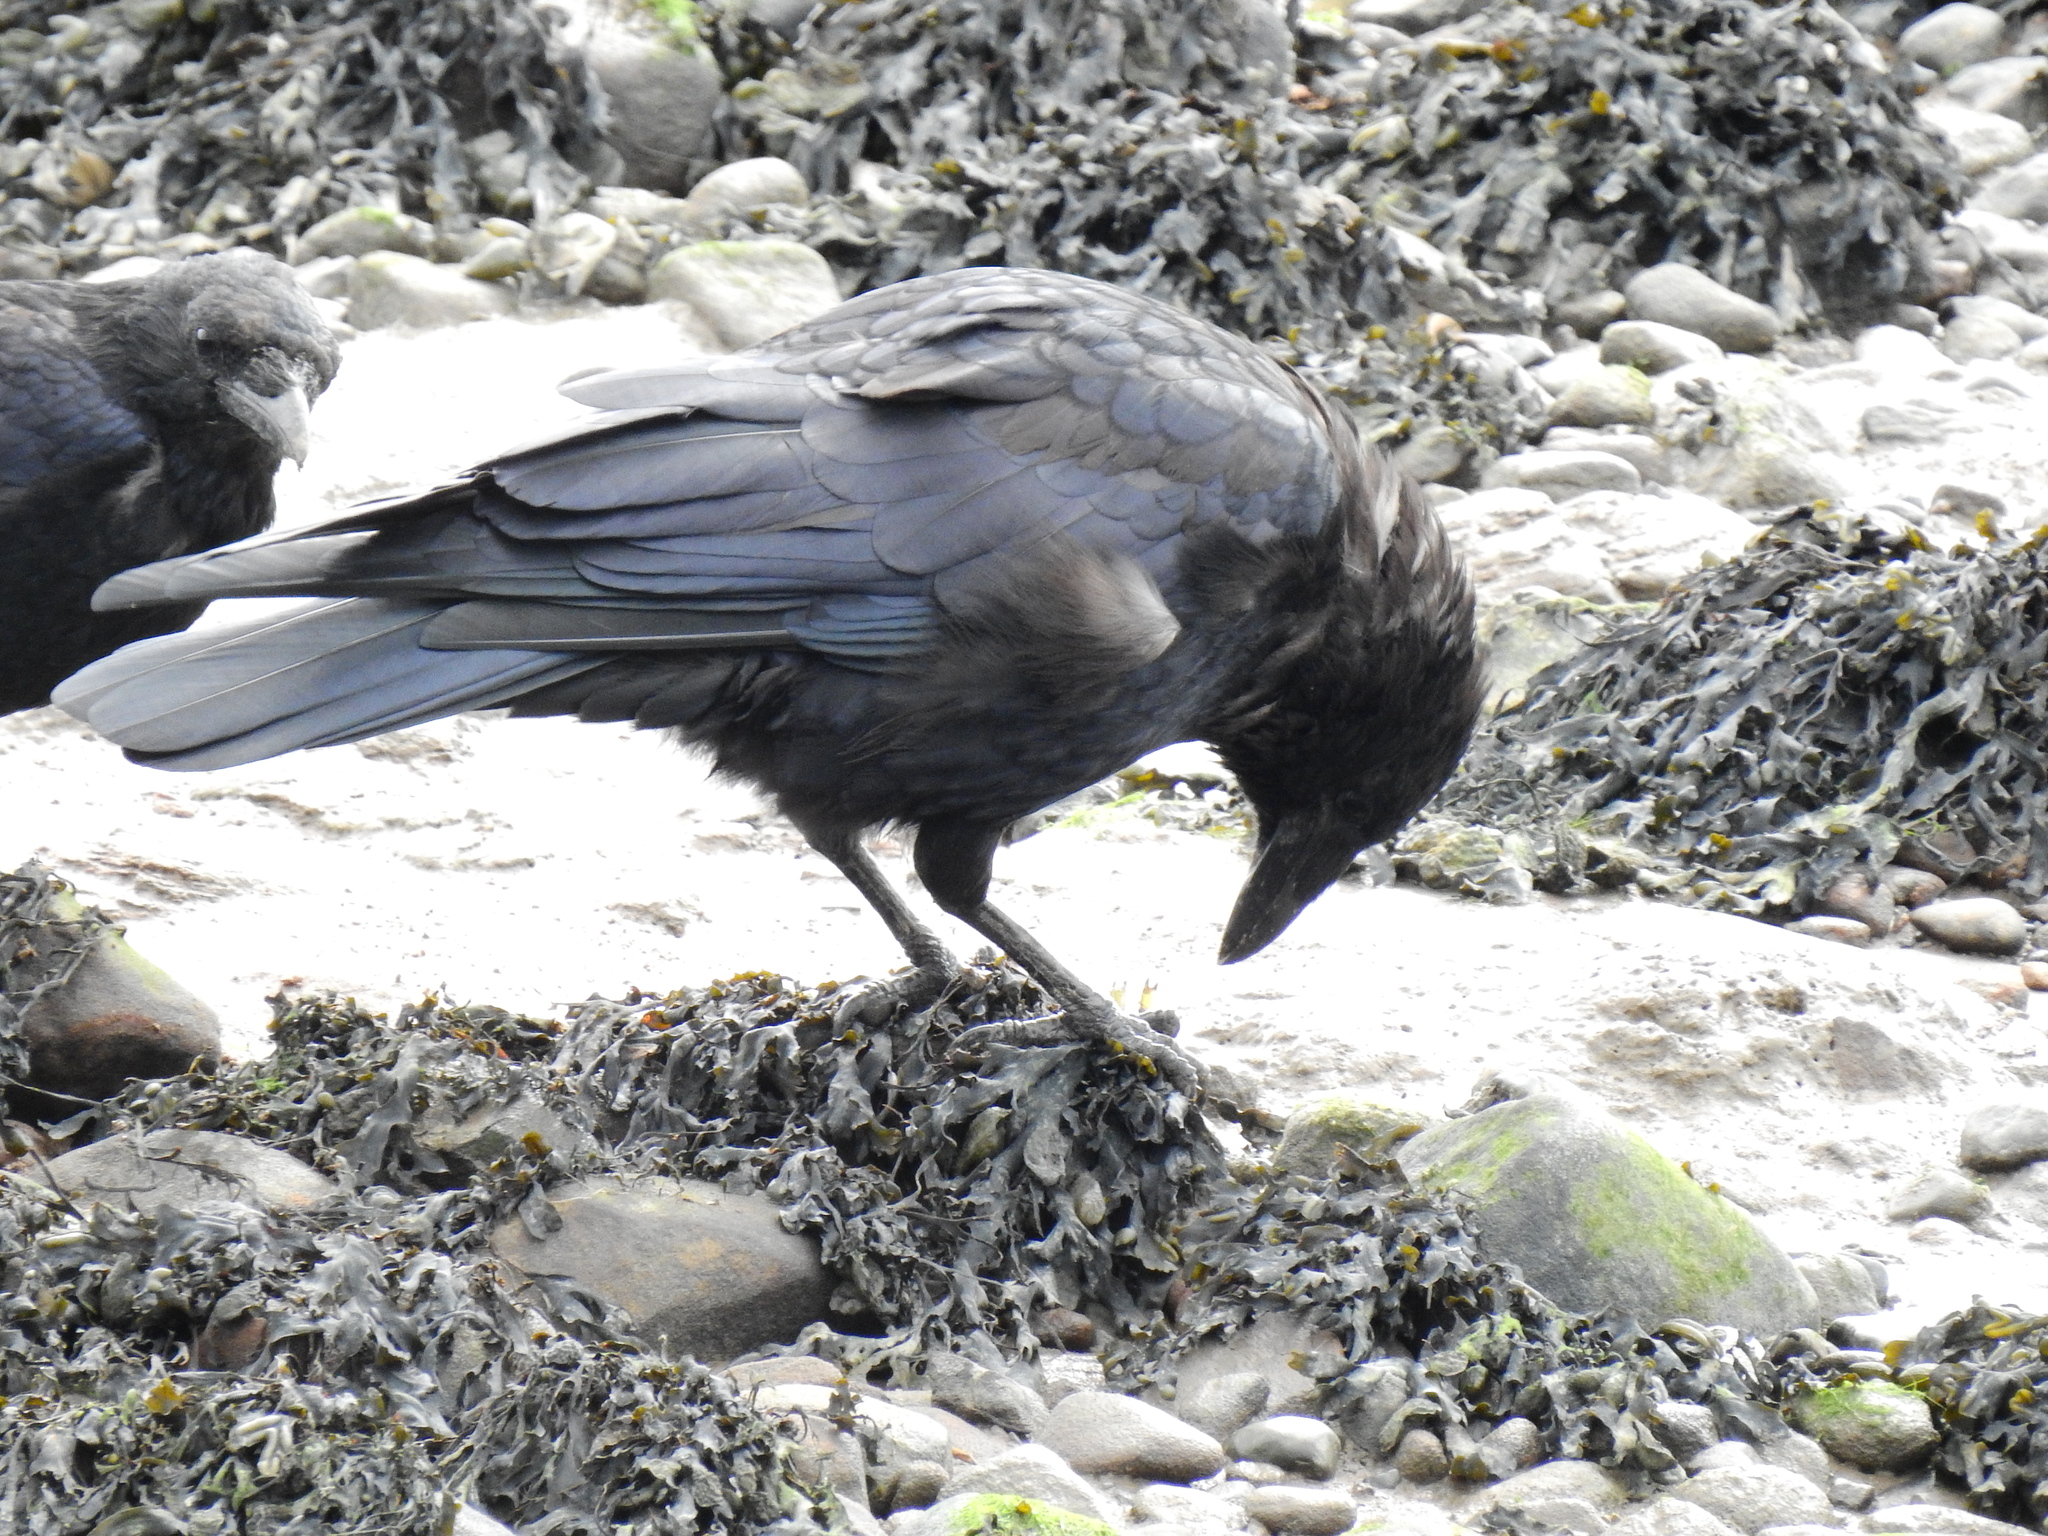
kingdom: Animalia
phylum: Chordata
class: Aves
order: Passeriformes
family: Corvidae
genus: Corvus
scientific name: Corvus corone
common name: Carrion crow
